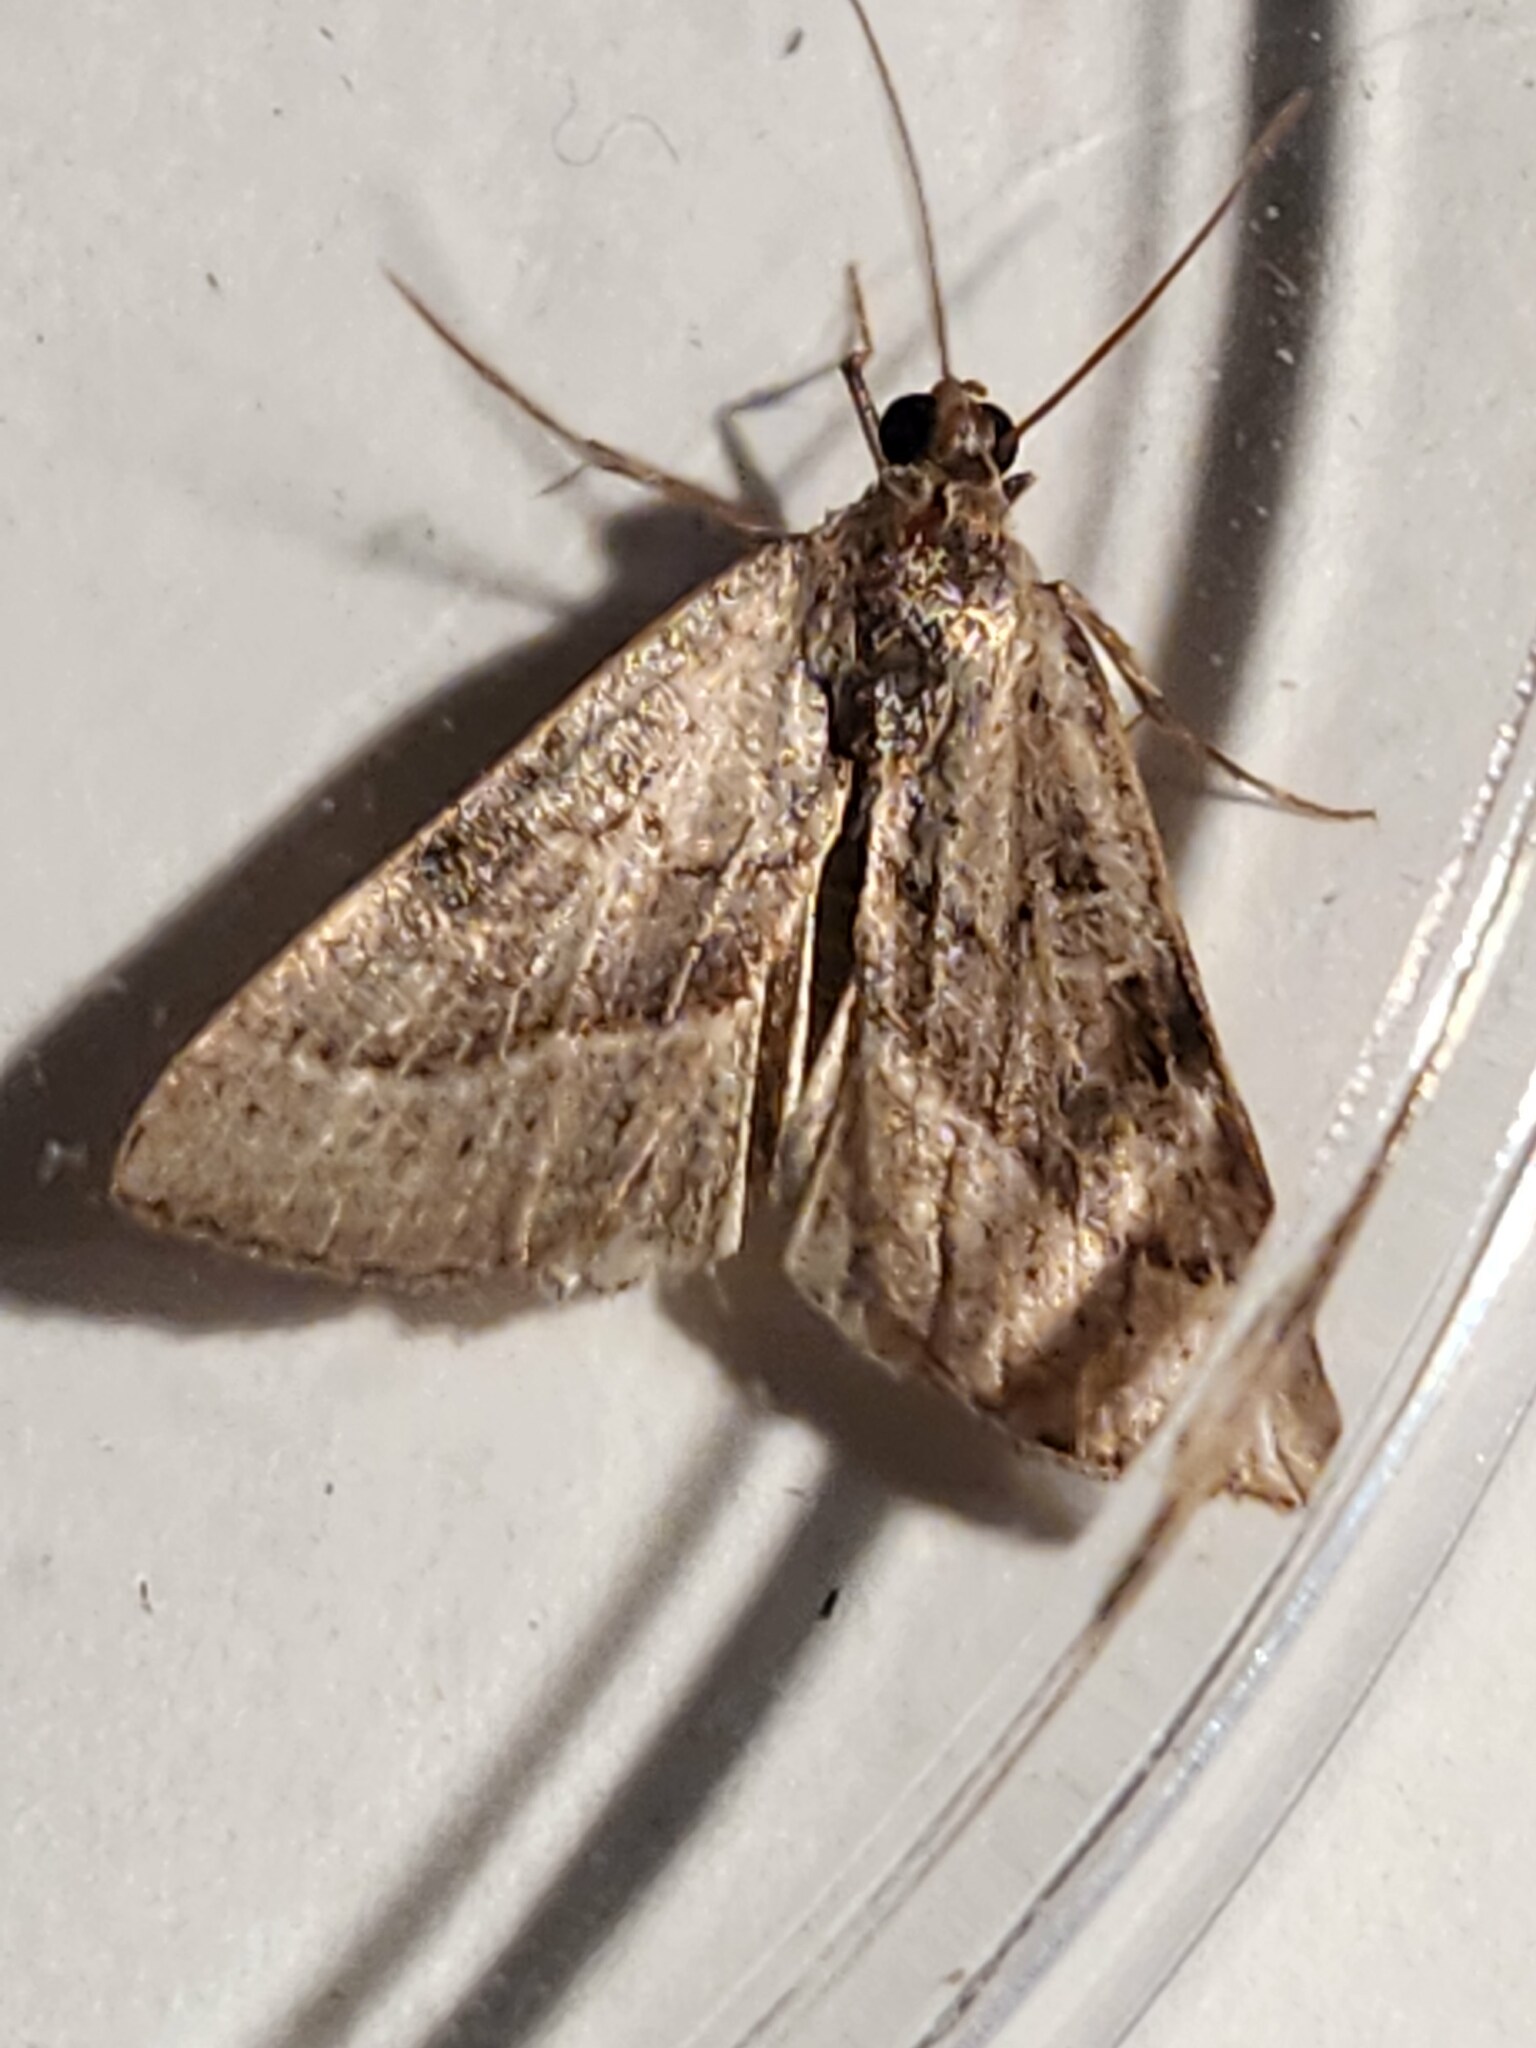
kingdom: Animalia
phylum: Arthropoda
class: Insecta
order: Lepidoptera
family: Noctuidae
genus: Galgula
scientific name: Galgula partita
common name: Wedgeling
